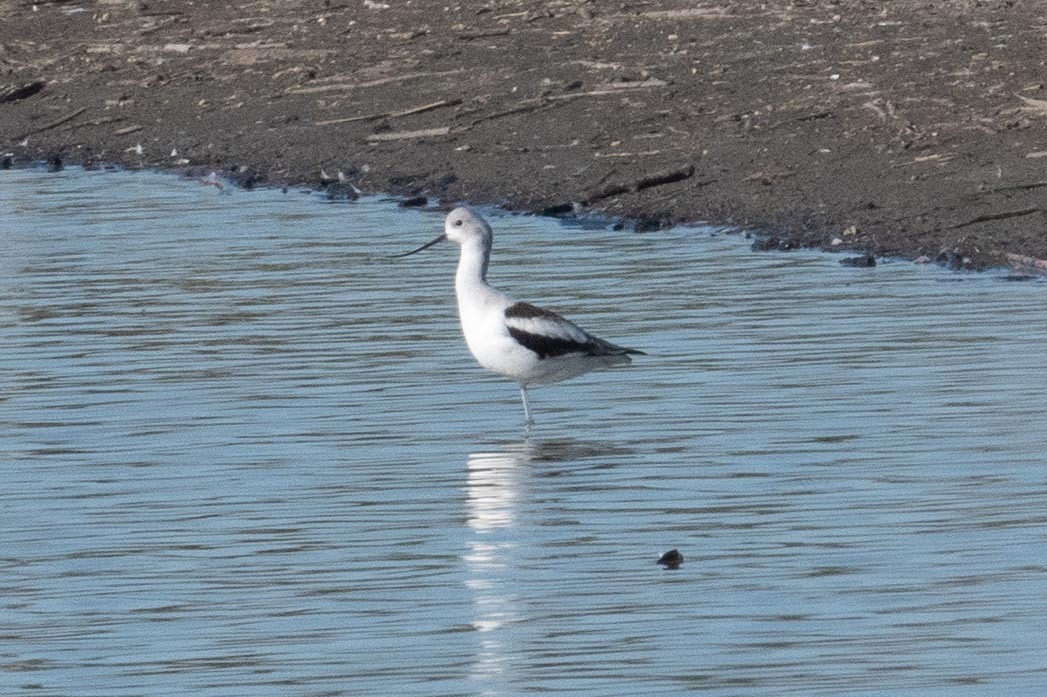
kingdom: Animalia
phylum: Chordata
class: Aves
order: Charadriiformes
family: Recurvirostridae
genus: Recurvirostra
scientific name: Recurvirostra americana
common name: American avocet
